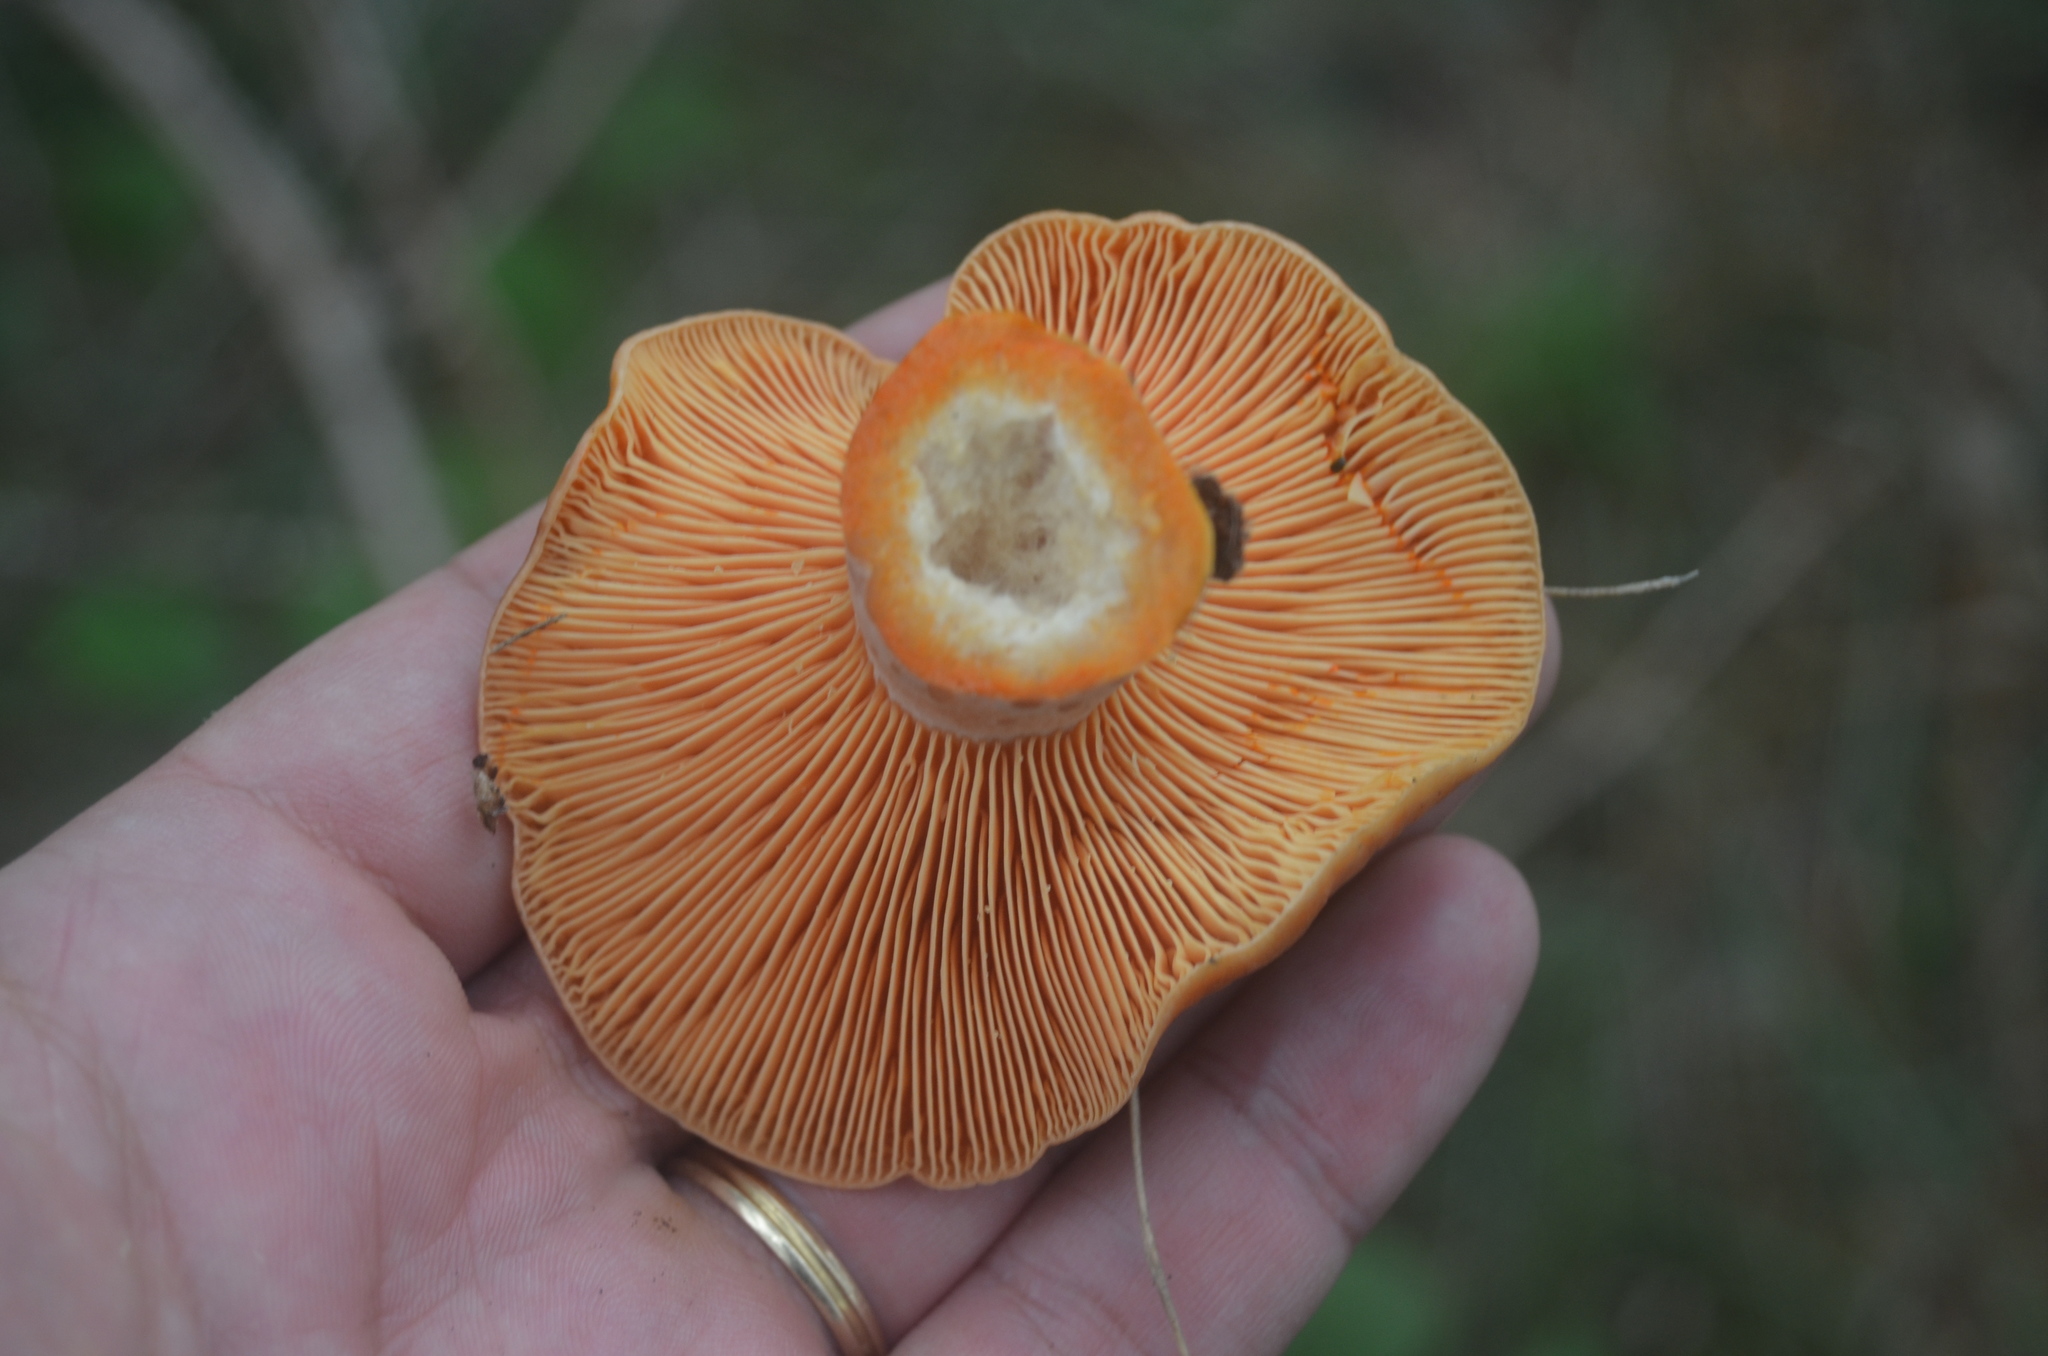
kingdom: Fungi
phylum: Basidiomycota
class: Agaricomycetes
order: Russulales
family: Russulaceae
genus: Lactarius
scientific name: Lactarius deliciosus
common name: Saffron milk-cap
